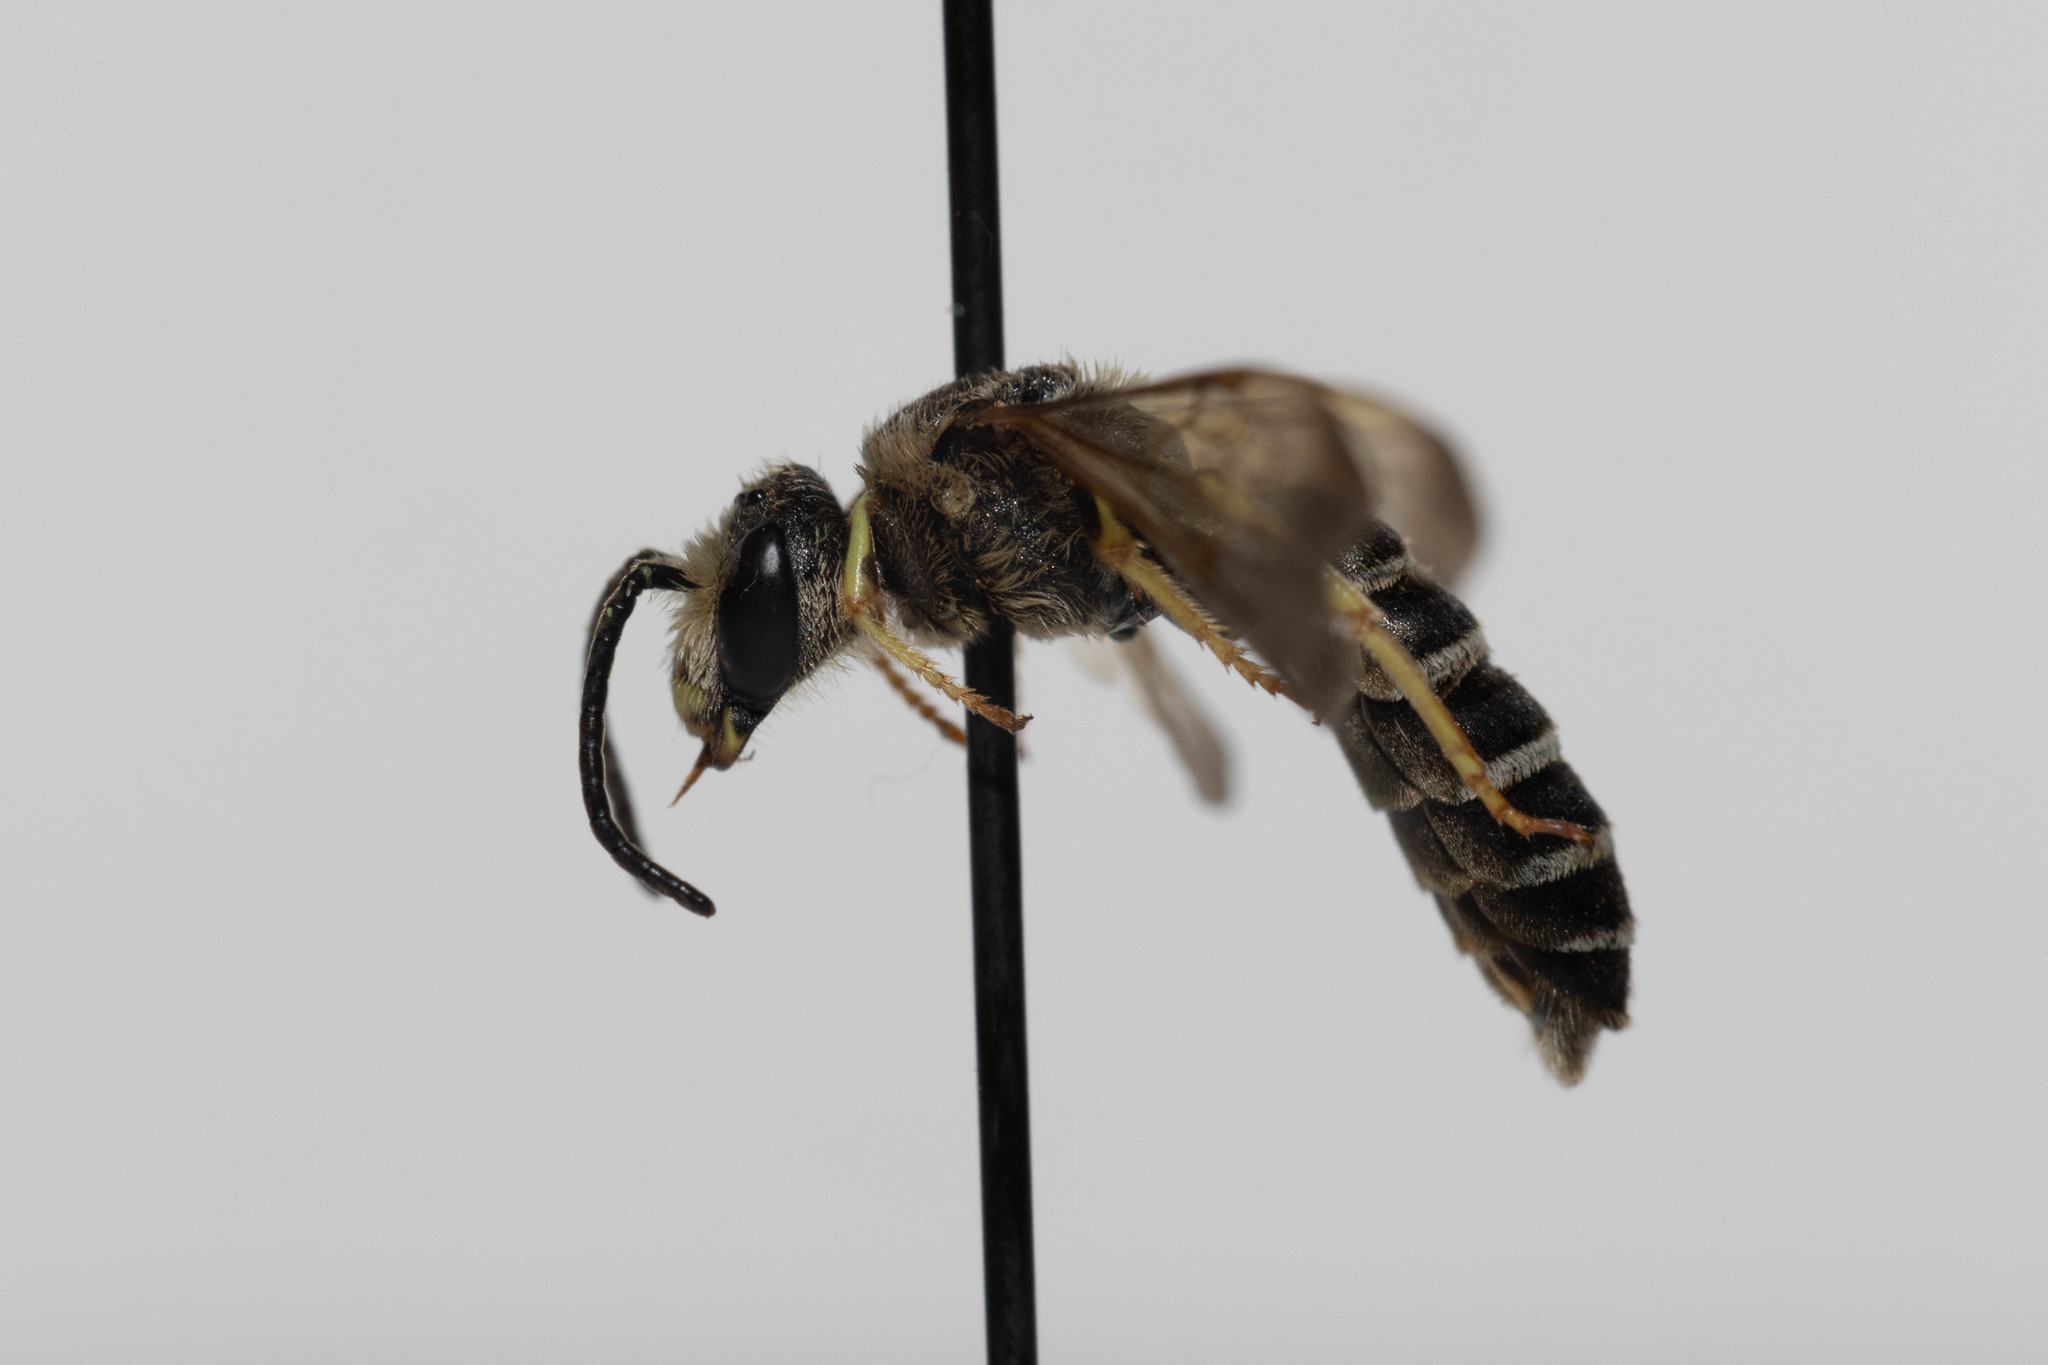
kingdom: Animalia
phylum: Arthropoda
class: Insecta
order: Hymenoptera
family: Halictidae
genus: Halictus
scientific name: Halictus farinosus
